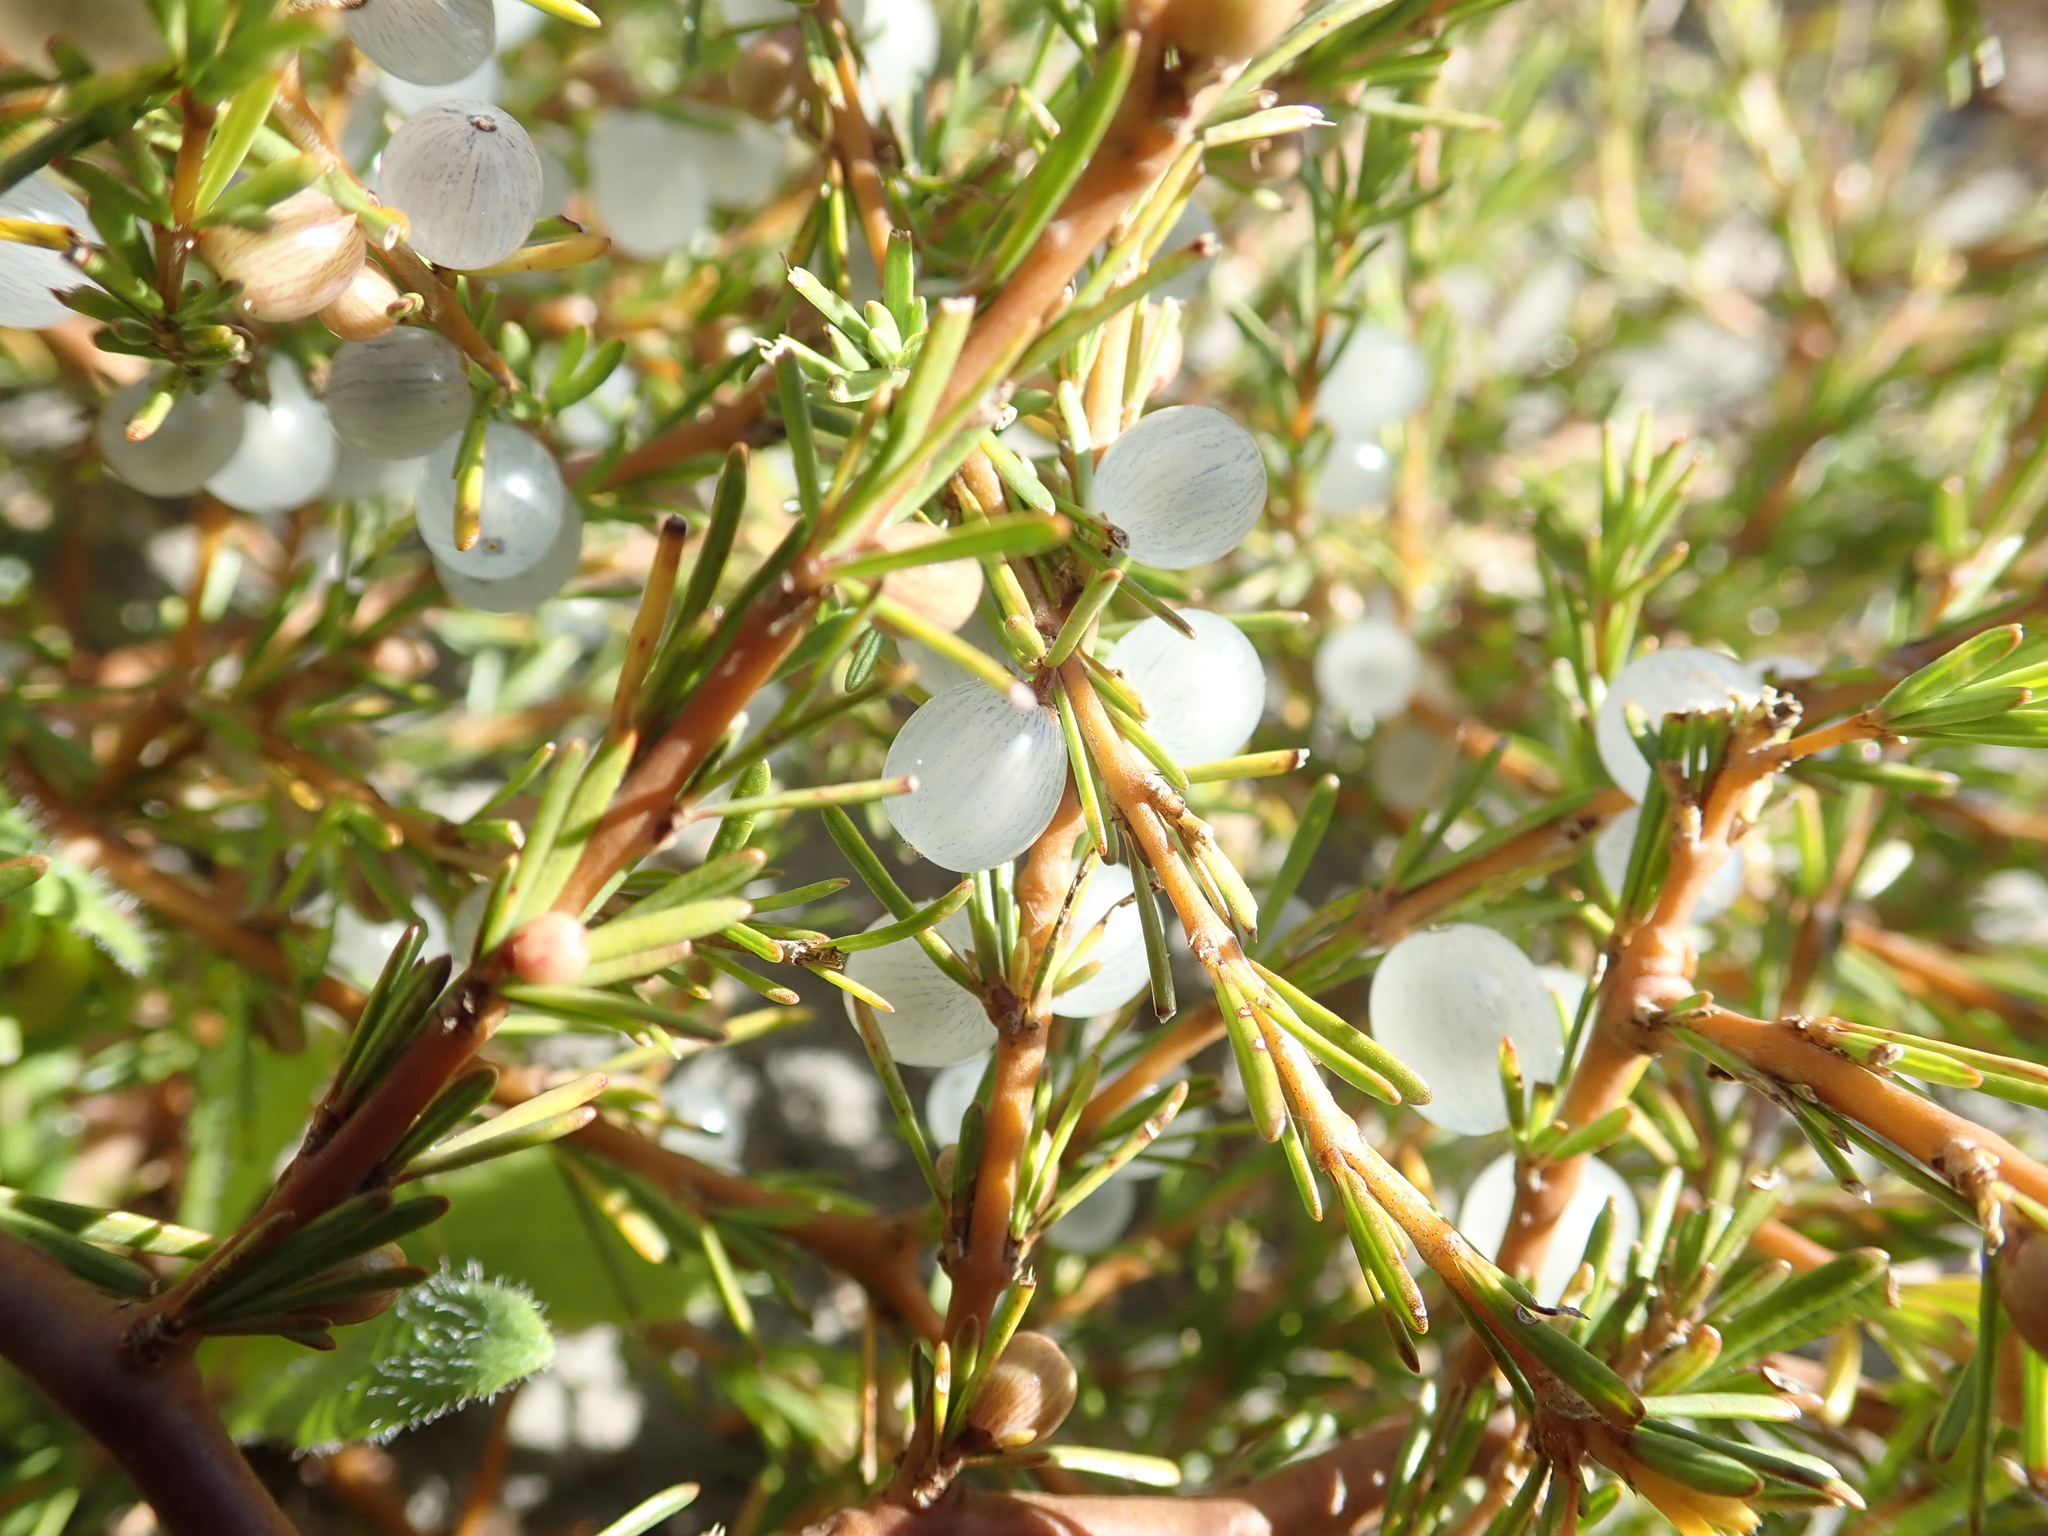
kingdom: Plantae
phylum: Tracheophyta
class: Magnoliopsida
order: Gentianales
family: Rubiaceae
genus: Coprosma
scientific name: Coprosma acerosa
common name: Sand coprosma
